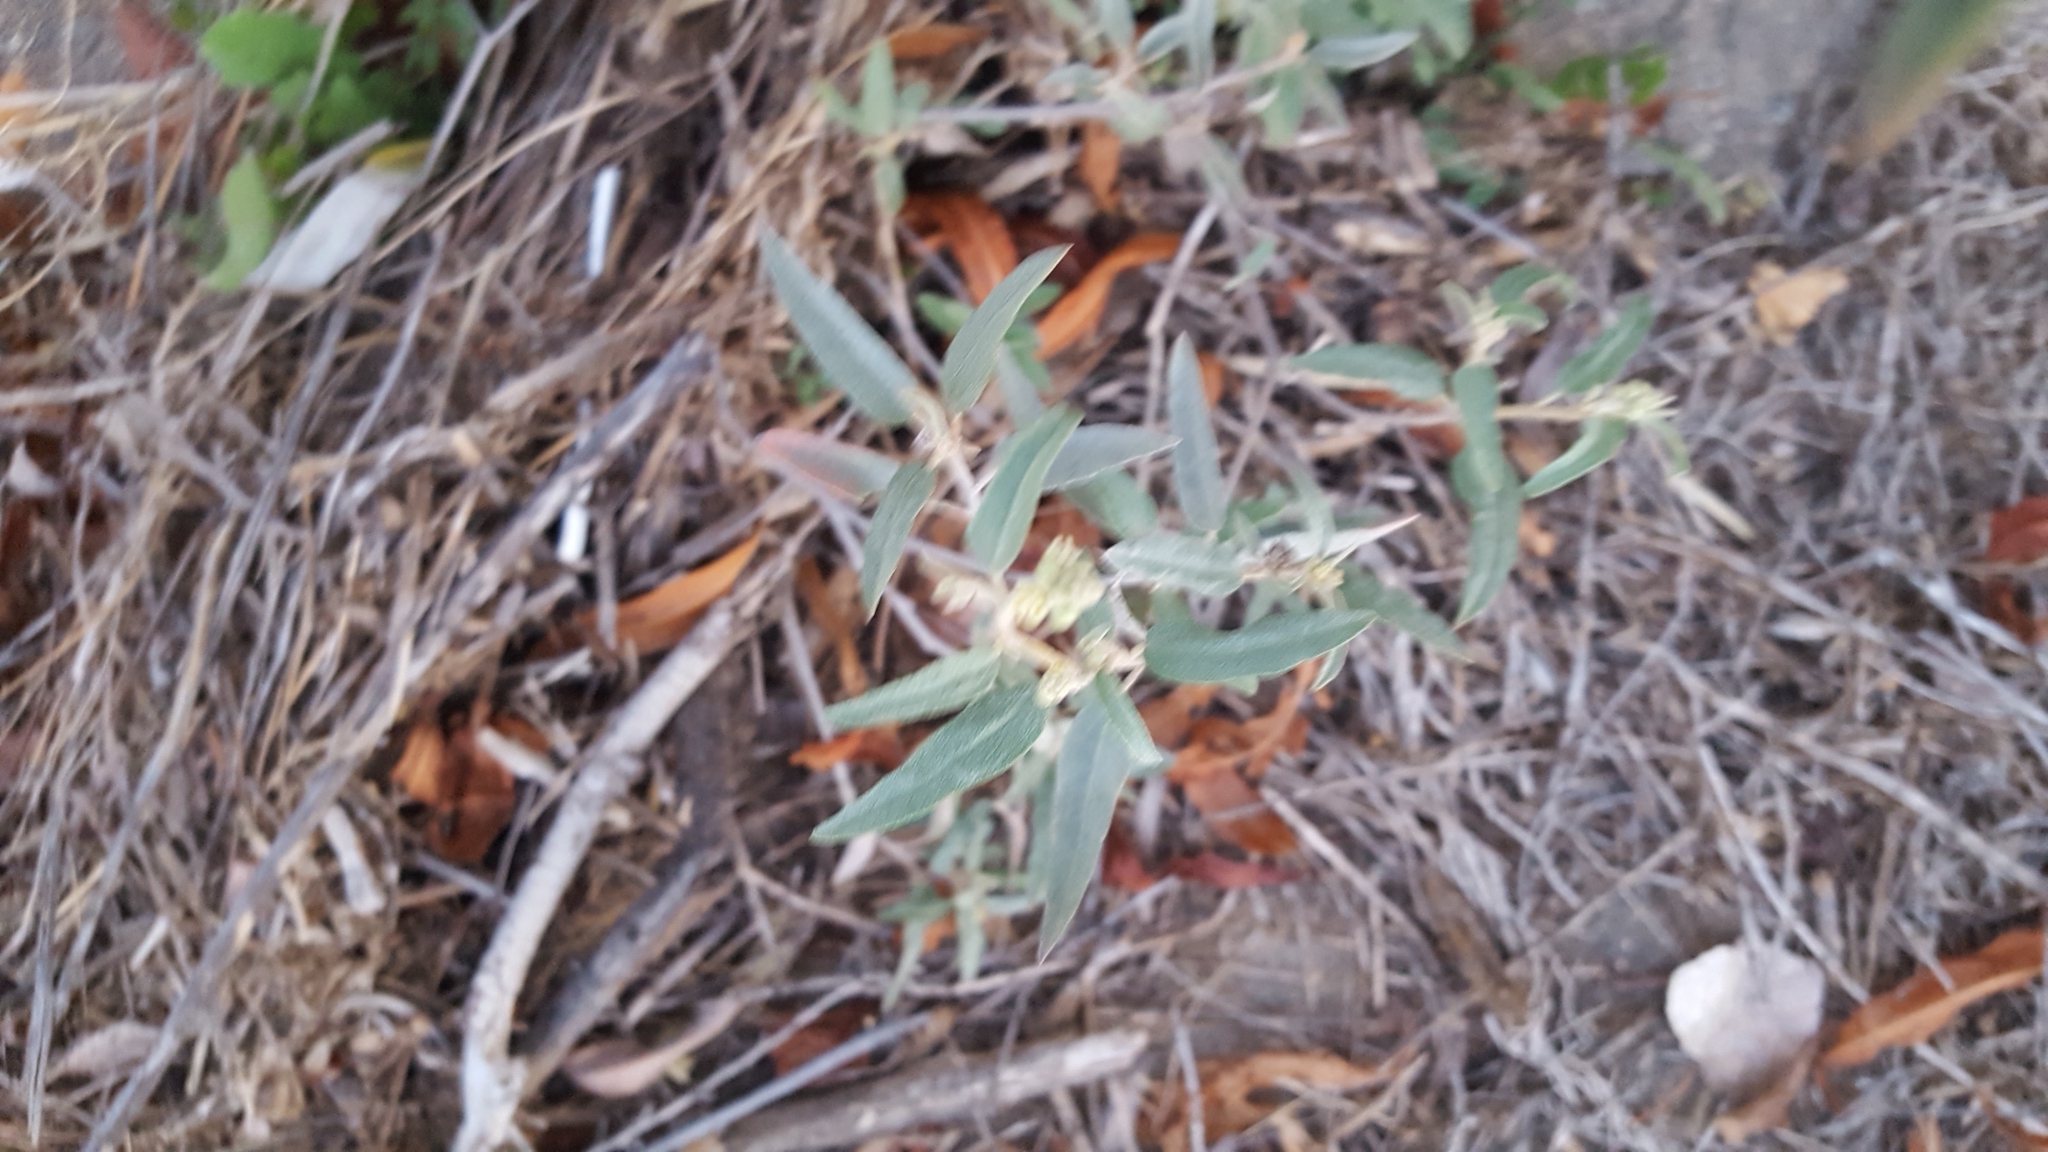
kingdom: Plantae
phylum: Tracheophyta
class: Magnoliopsida
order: Malpighiales
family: Euphorbiaceae
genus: Croton
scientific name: Croton californicus
